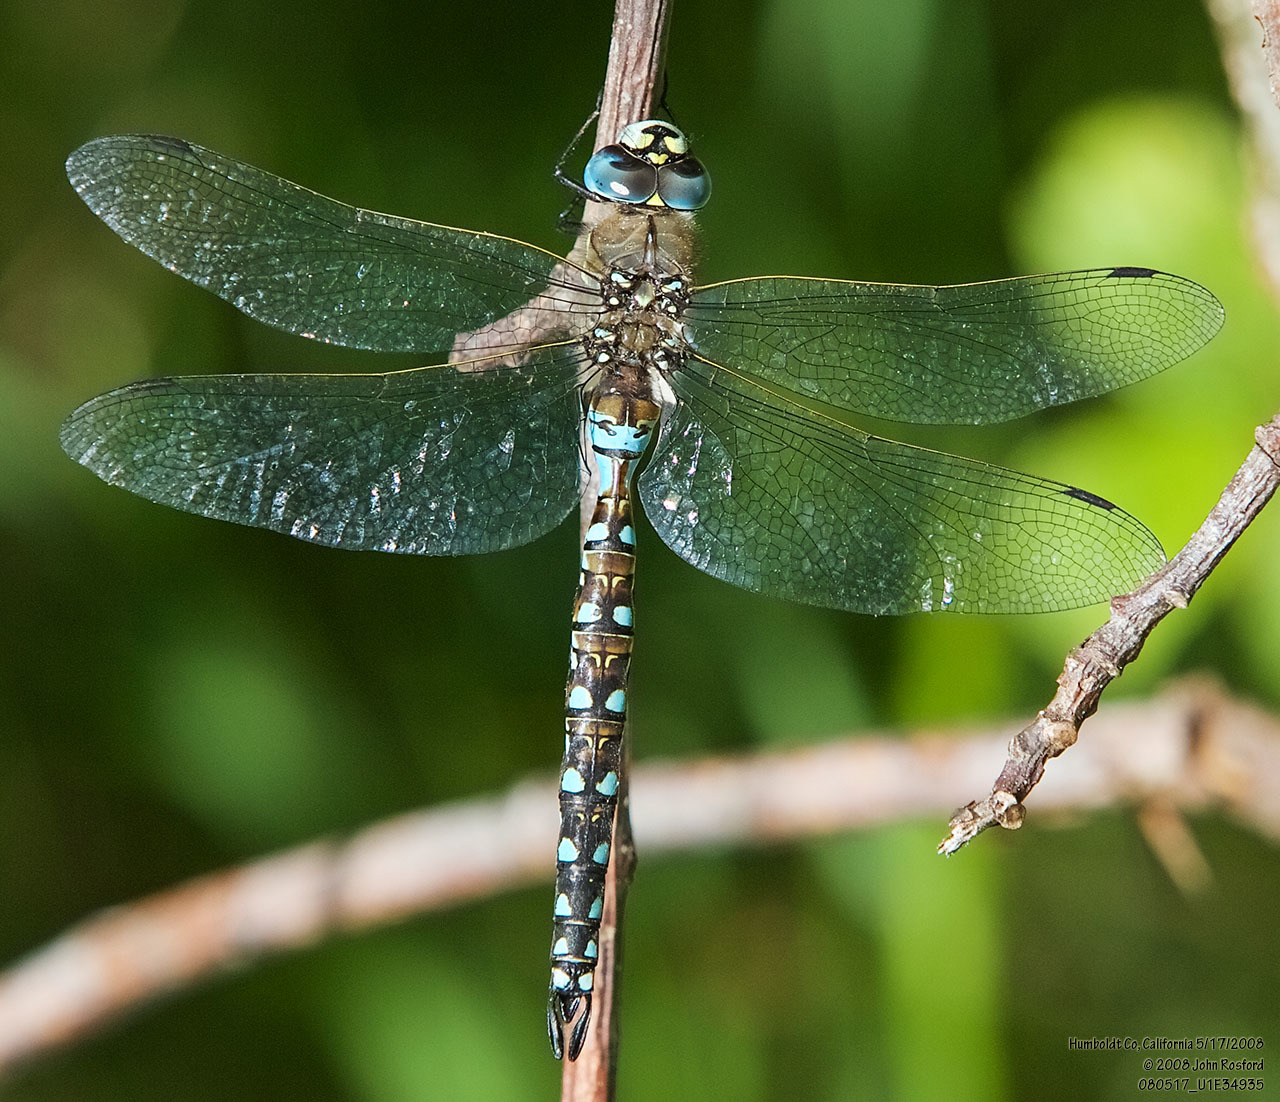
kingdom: Animalia
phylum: Arthropoda
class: Insecta
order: Odonata
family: Aeshnidae
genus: Rhionaeschna
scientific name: Rhionaeschna californica
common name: California darner
